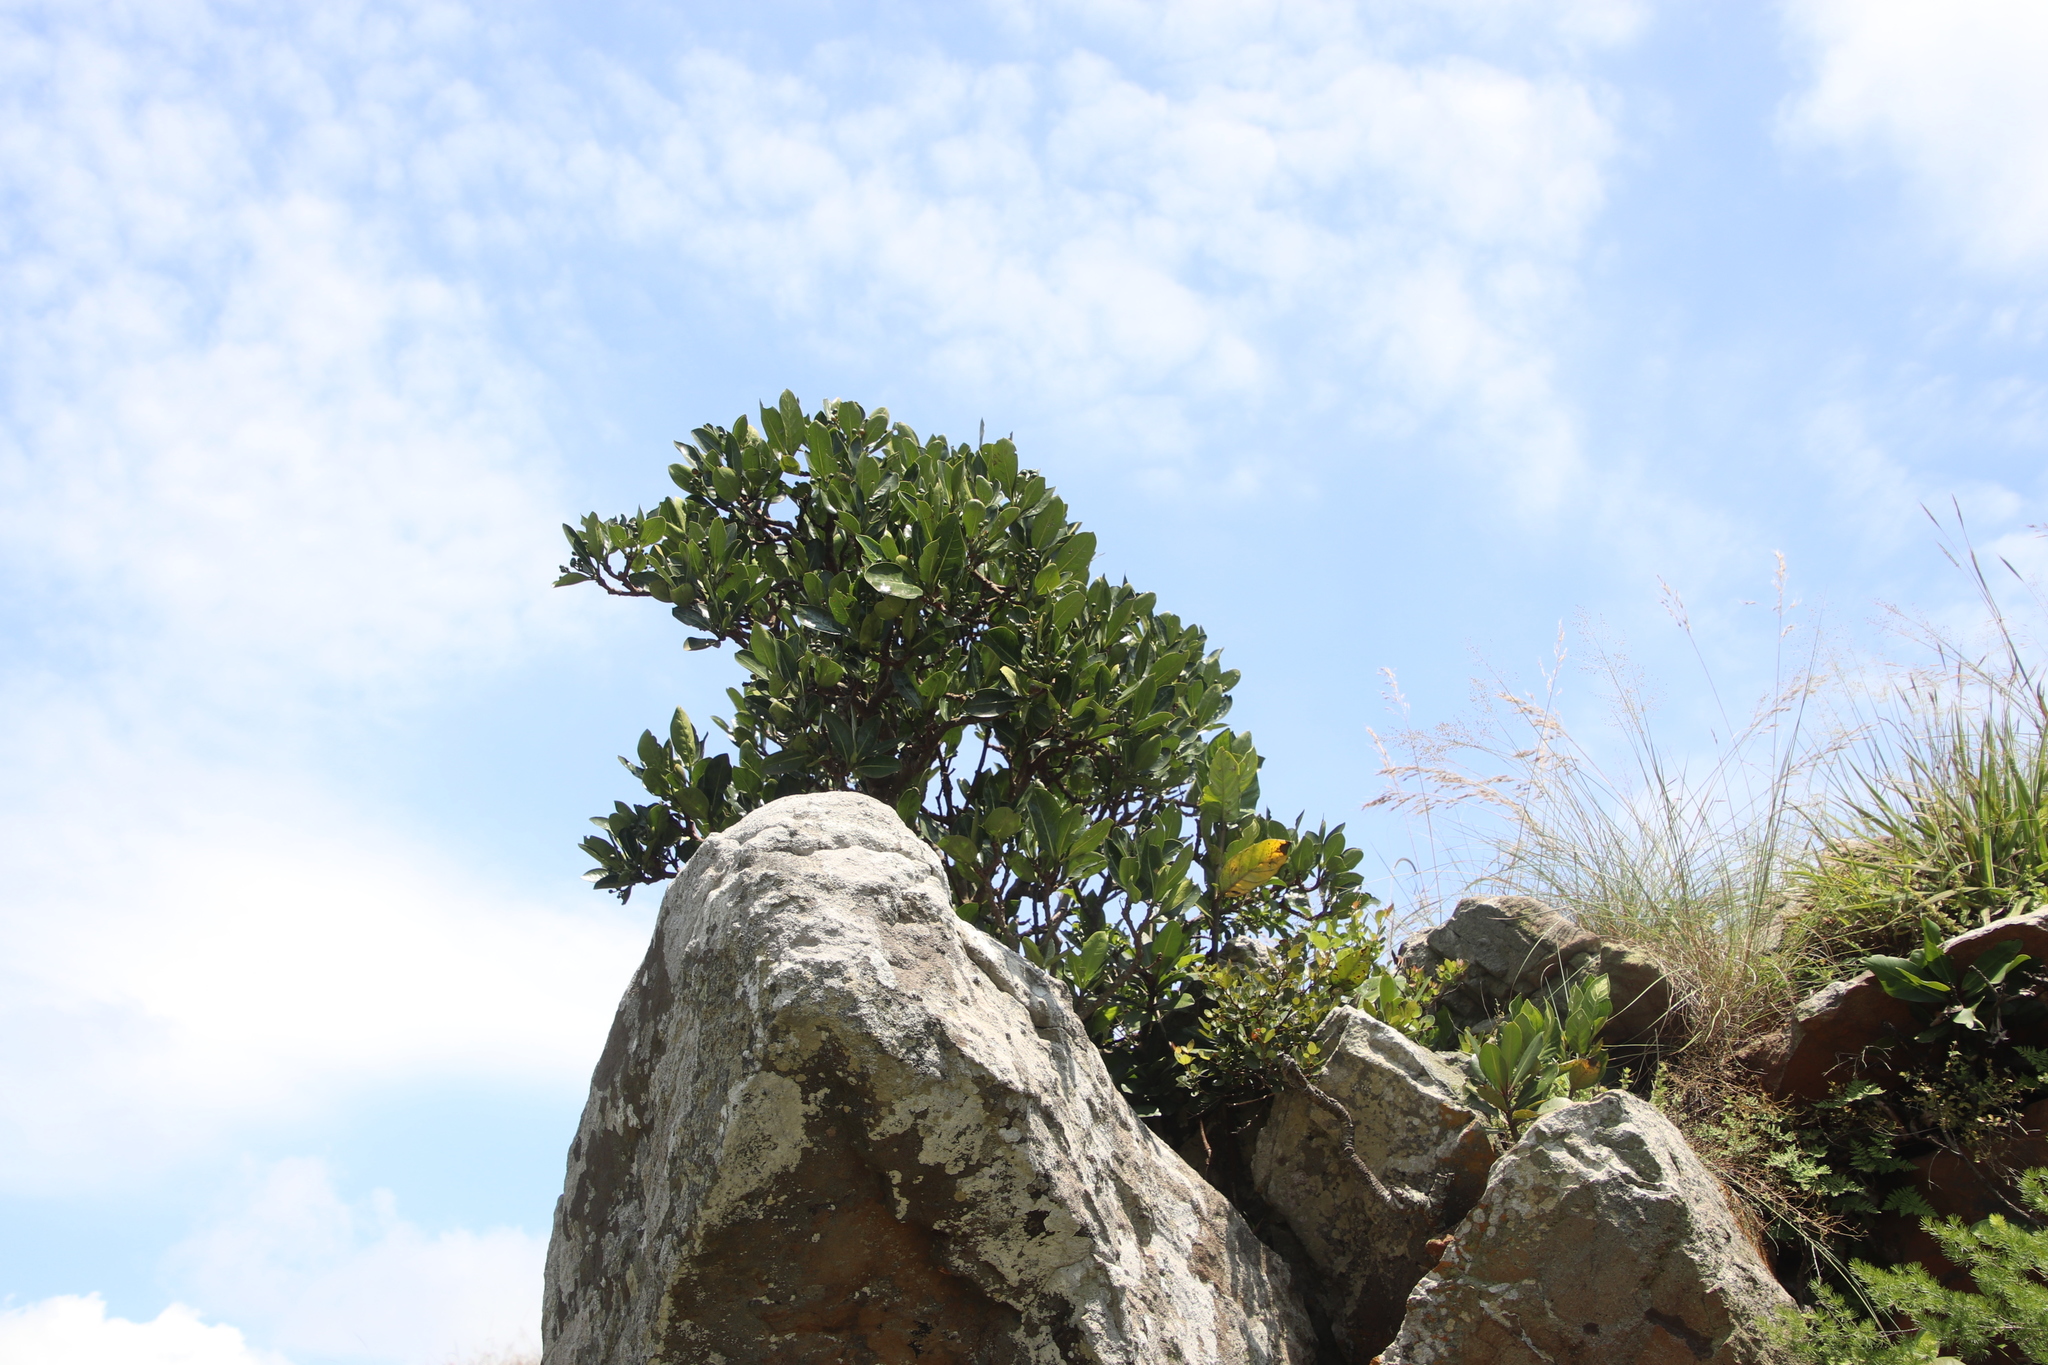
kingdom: Plantae
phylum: Tracheophyta
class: Magnoliopsida
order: Gentianales
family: Rubiaceae
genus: Psychotria
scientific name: Psychotria
